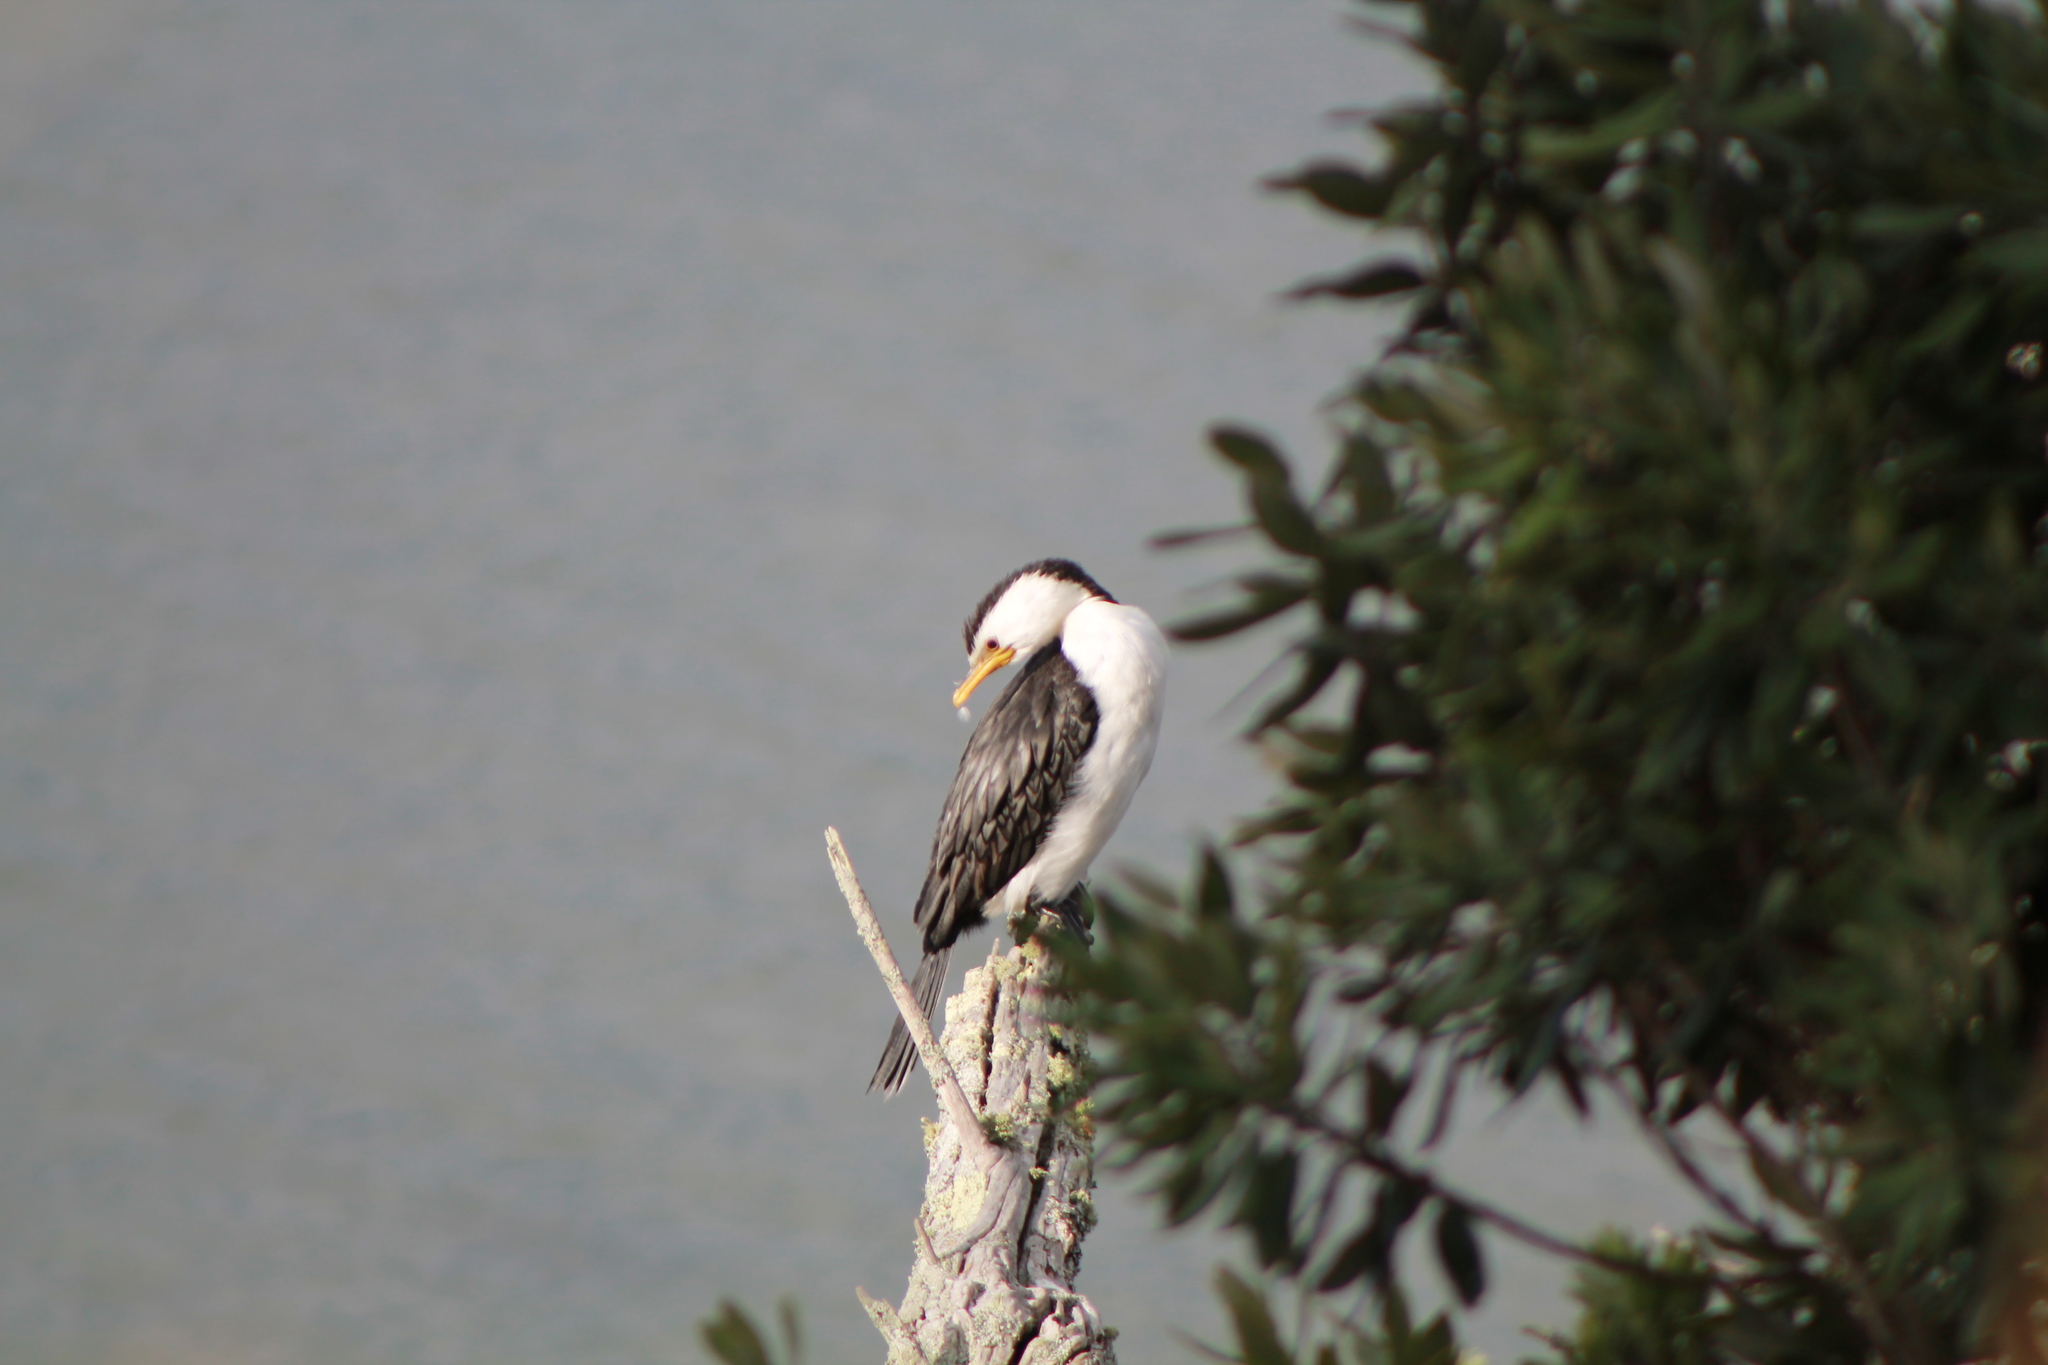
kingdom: Animalia
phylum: Chordata
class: Aves
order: Suliformes
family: Phalacrocoracidae
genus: Microcarbo
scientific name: Microcarbo melanoleucos
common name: Little pied cormorant
